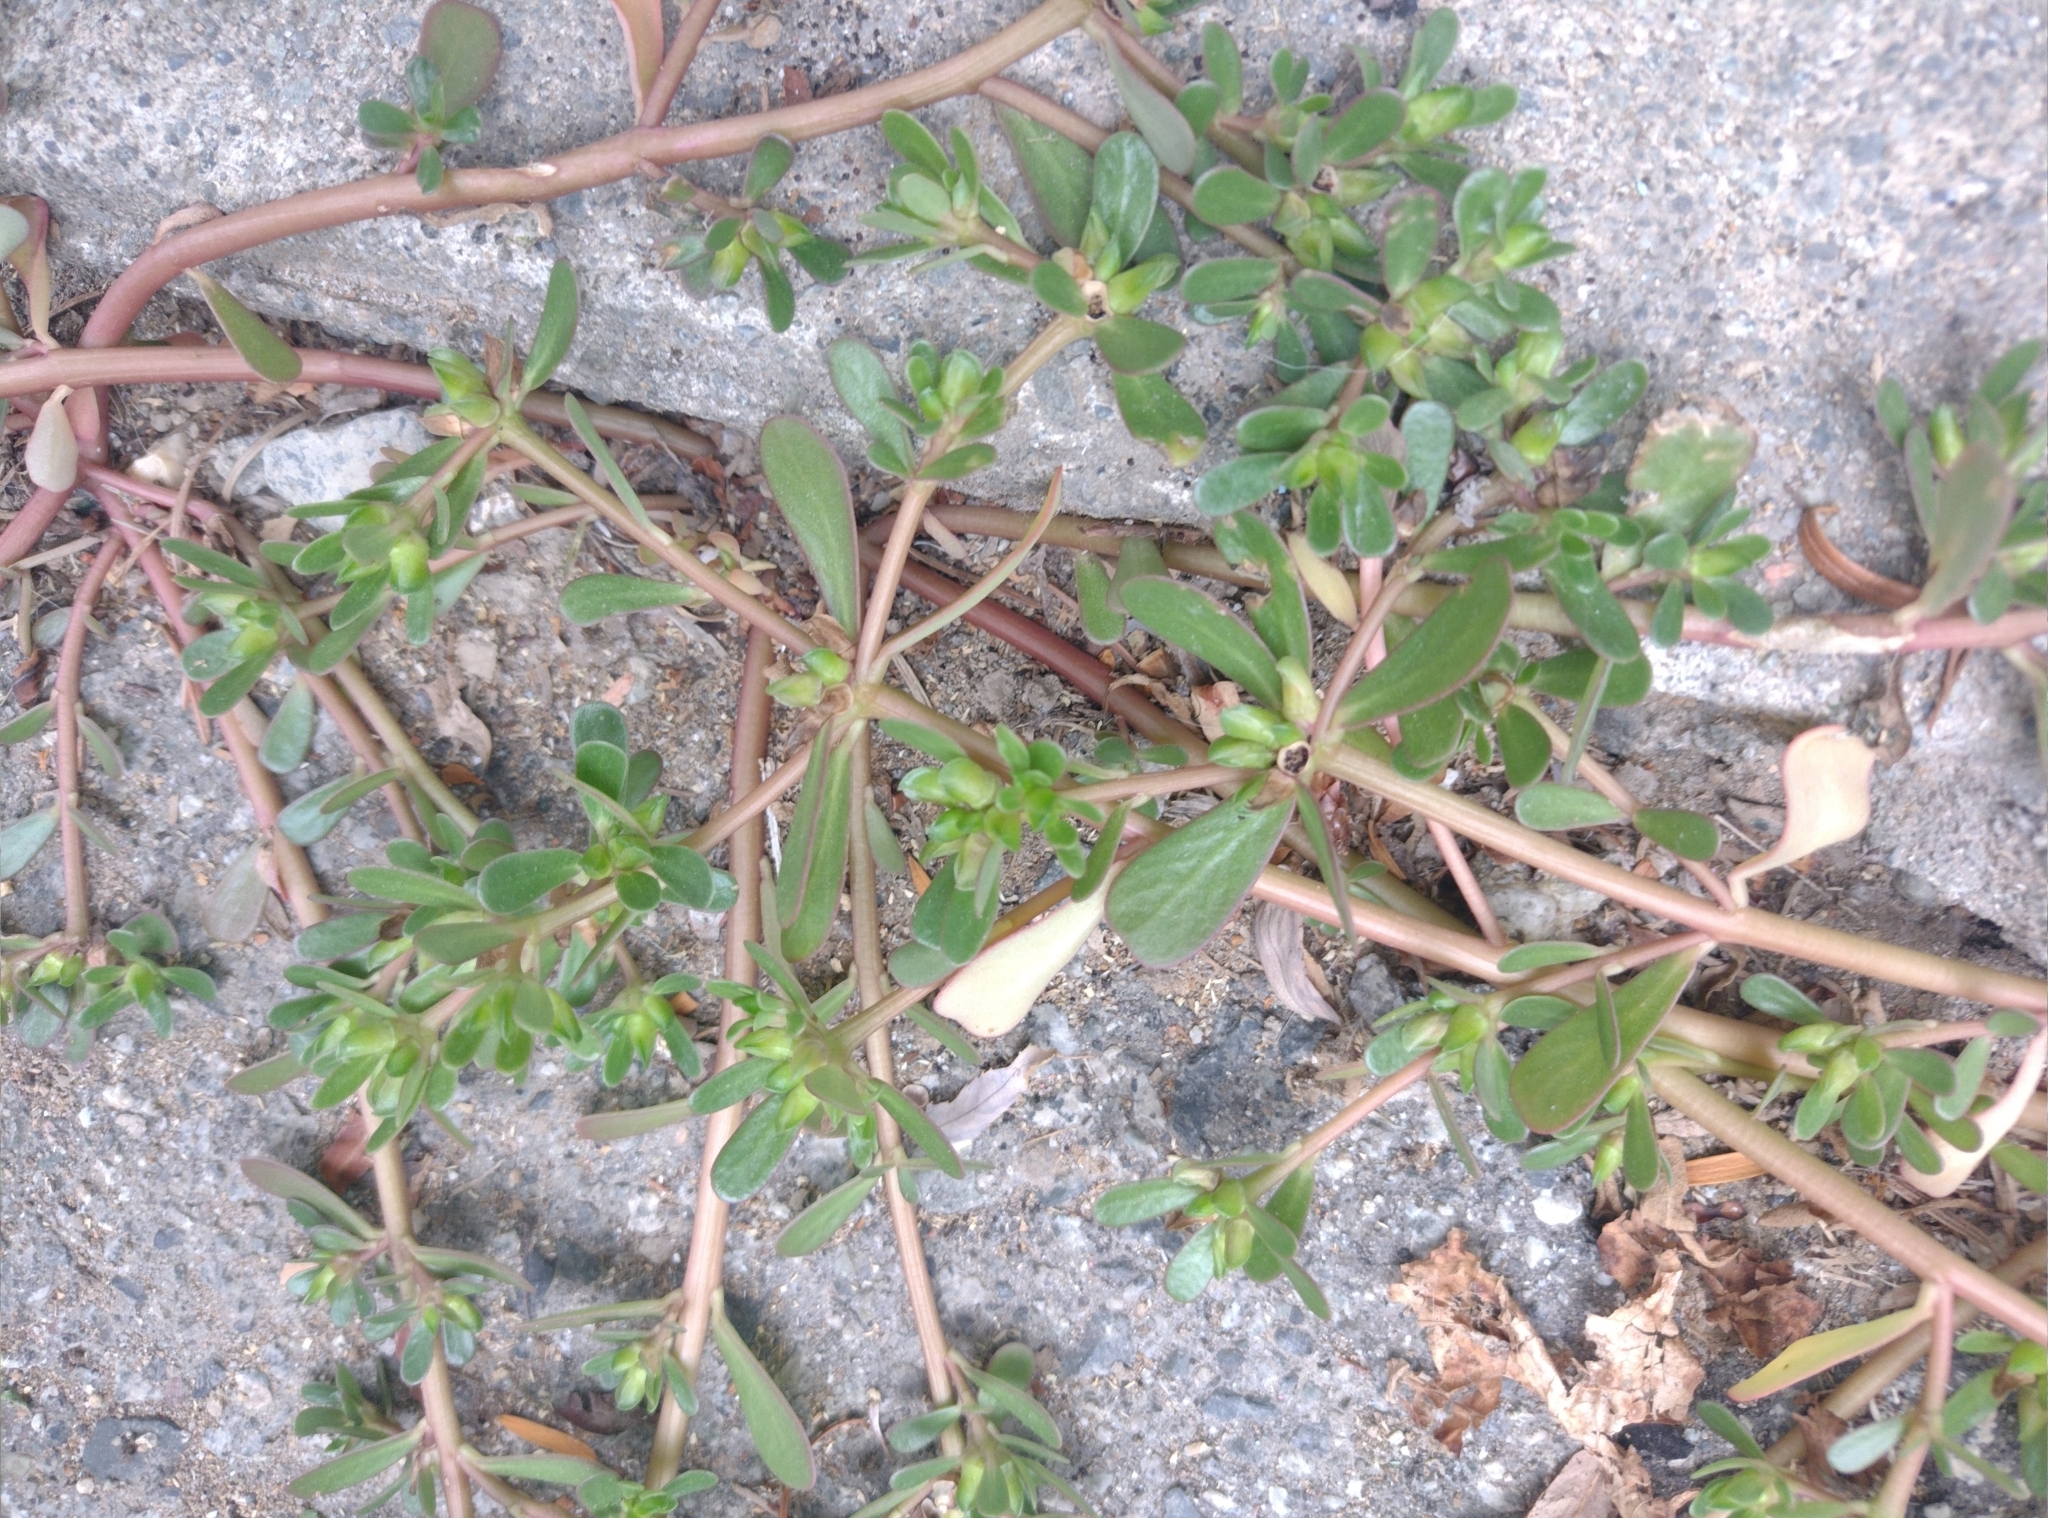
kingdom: Plantae
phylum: Tracheophyta
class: Magnoliopsida
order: Caryophyllales
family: Portulacaceae
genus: Portulaca
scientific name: Portulaca oleracea
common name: Common purslane
